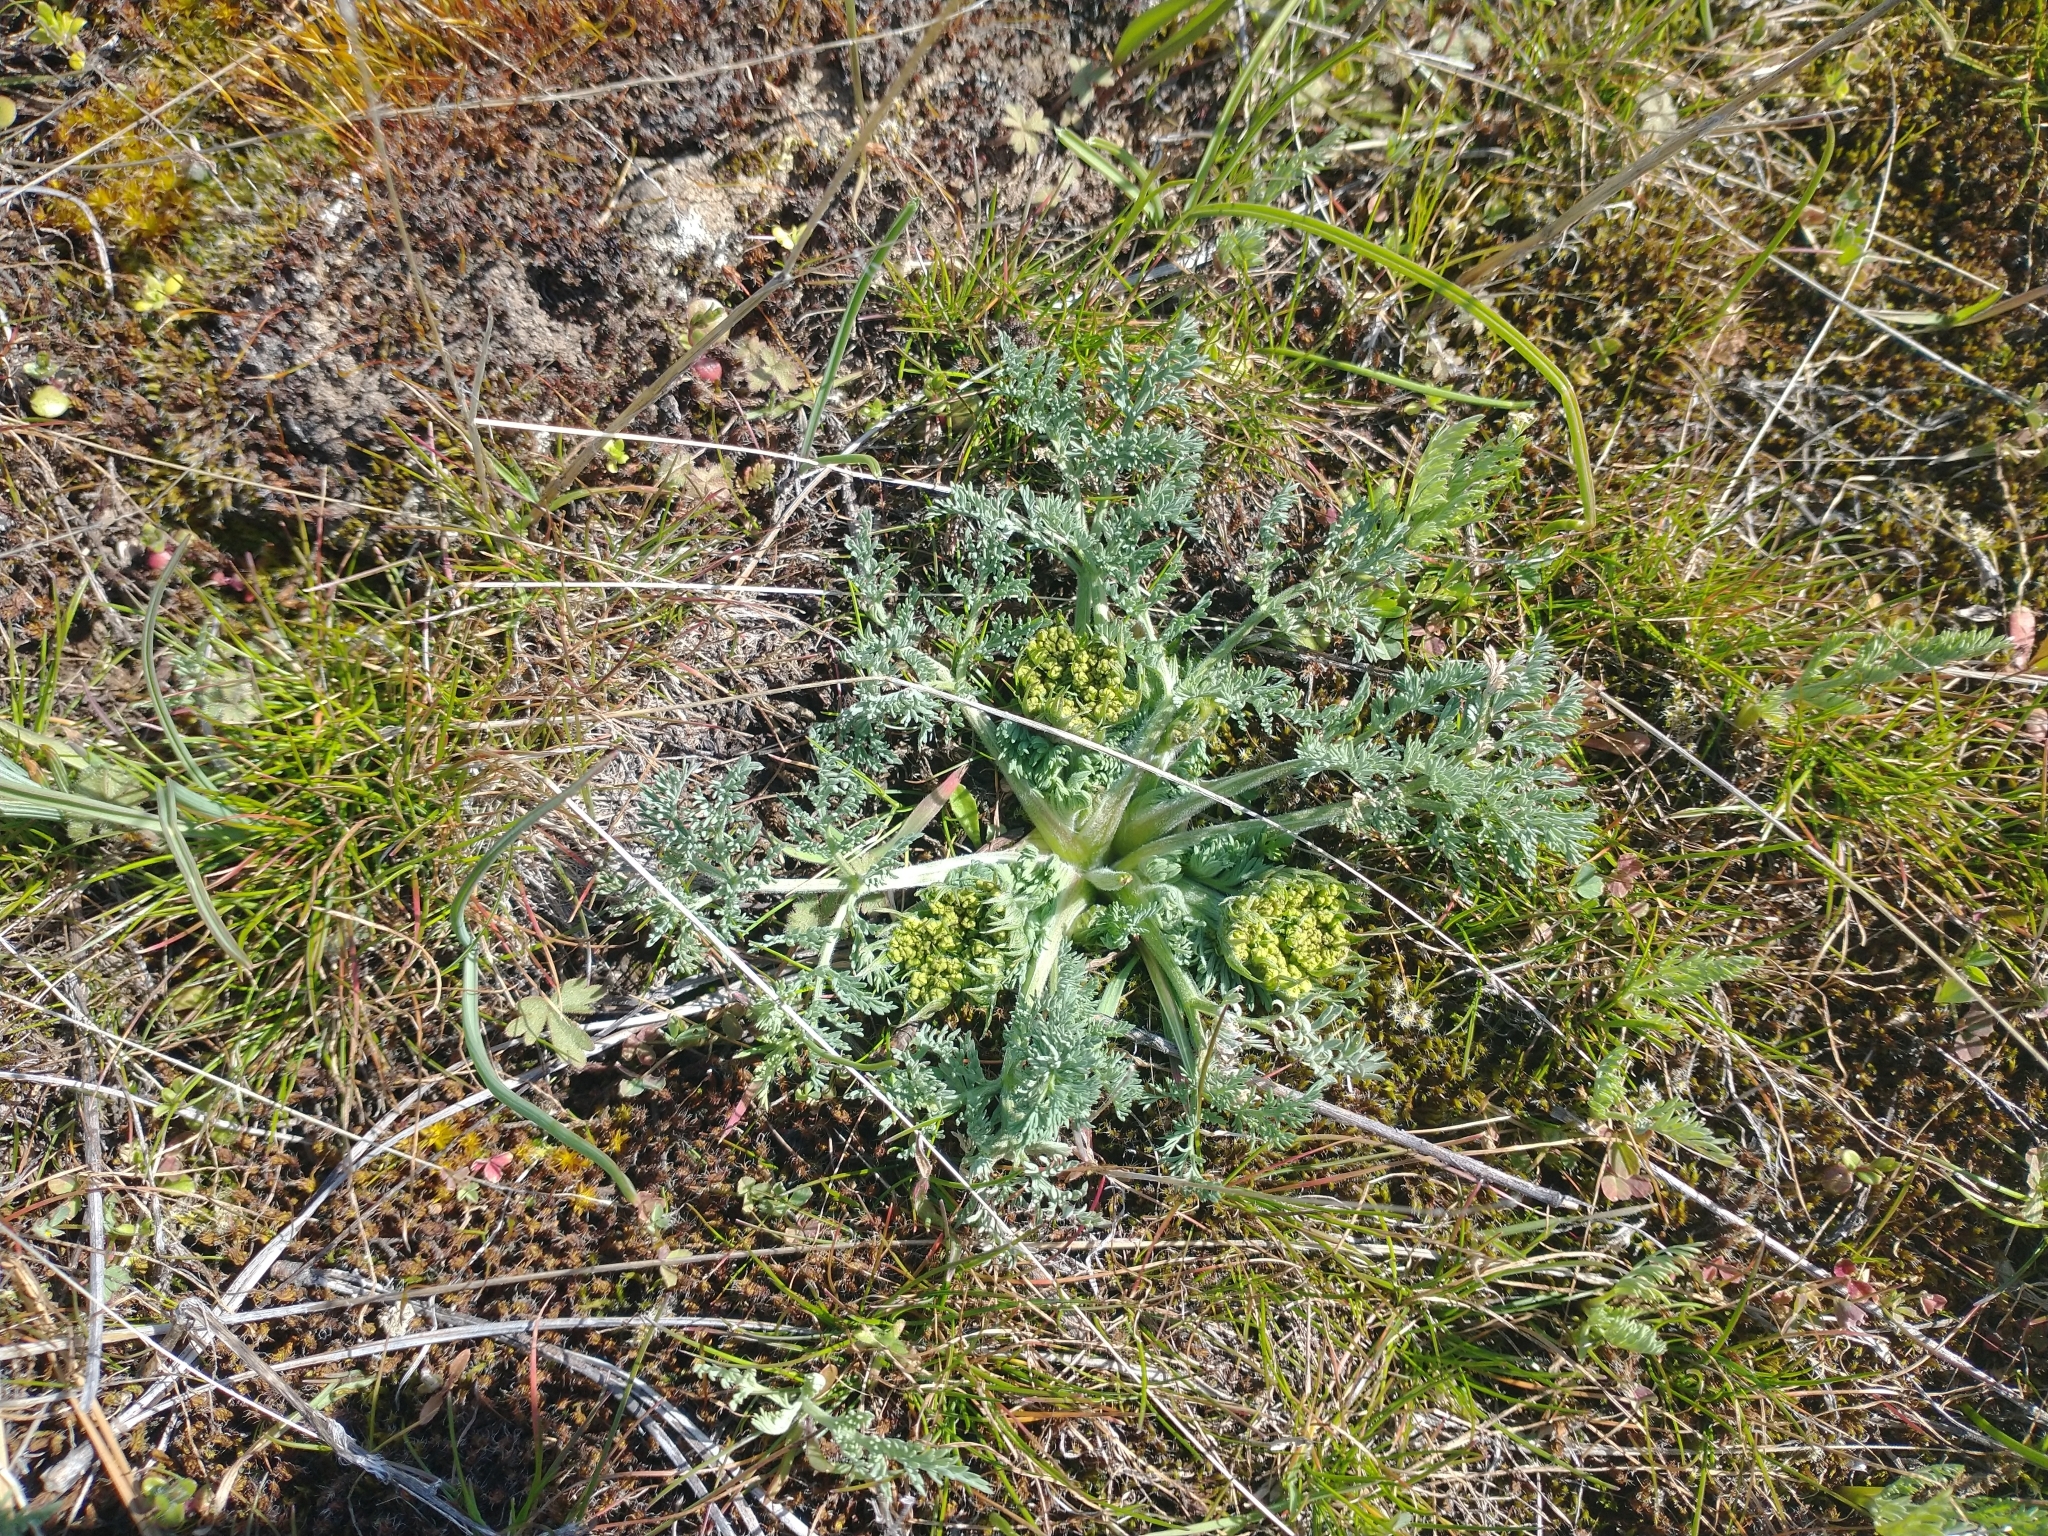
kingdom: Plantae
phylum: Tracheophyta
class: Magnoliopsida
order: Apiales
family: Apiaceae
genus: Lomatium
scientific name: Lomatium macrocarpum
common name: Big-seed biscuitroot
